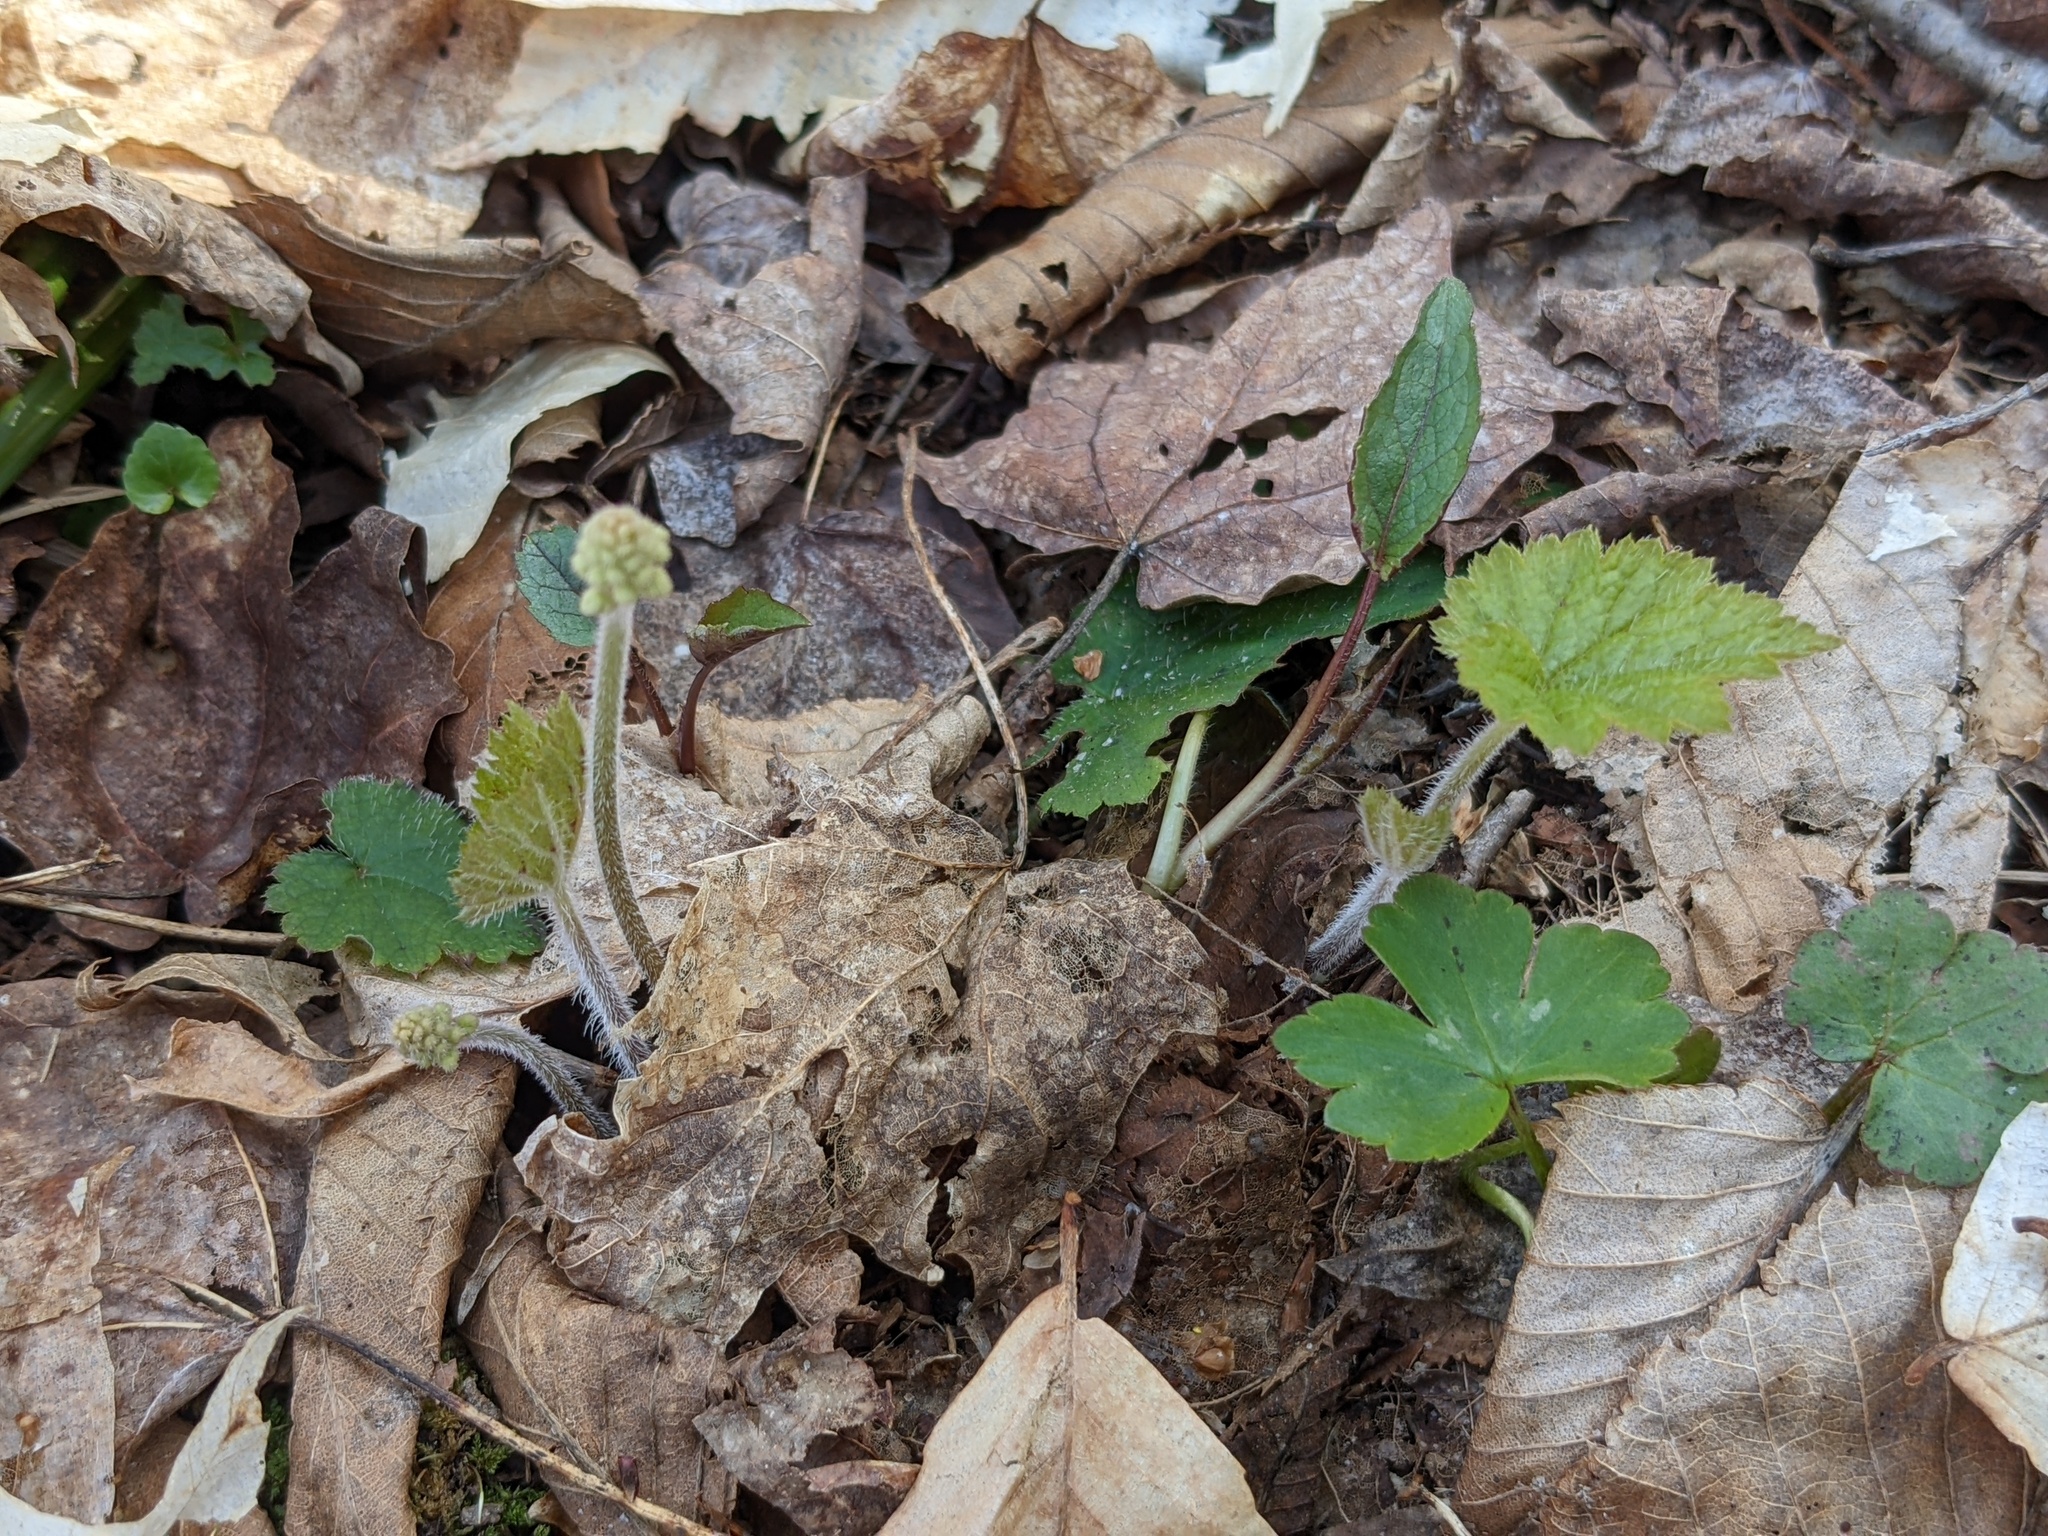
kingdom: Plantae
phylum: Tracheophyta
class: Magnoliopsida
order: Saxifragales
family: Saxifragaceae
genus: Tiarella
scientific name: Tiarella stolonifera
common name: Stoloniferous foamflower
